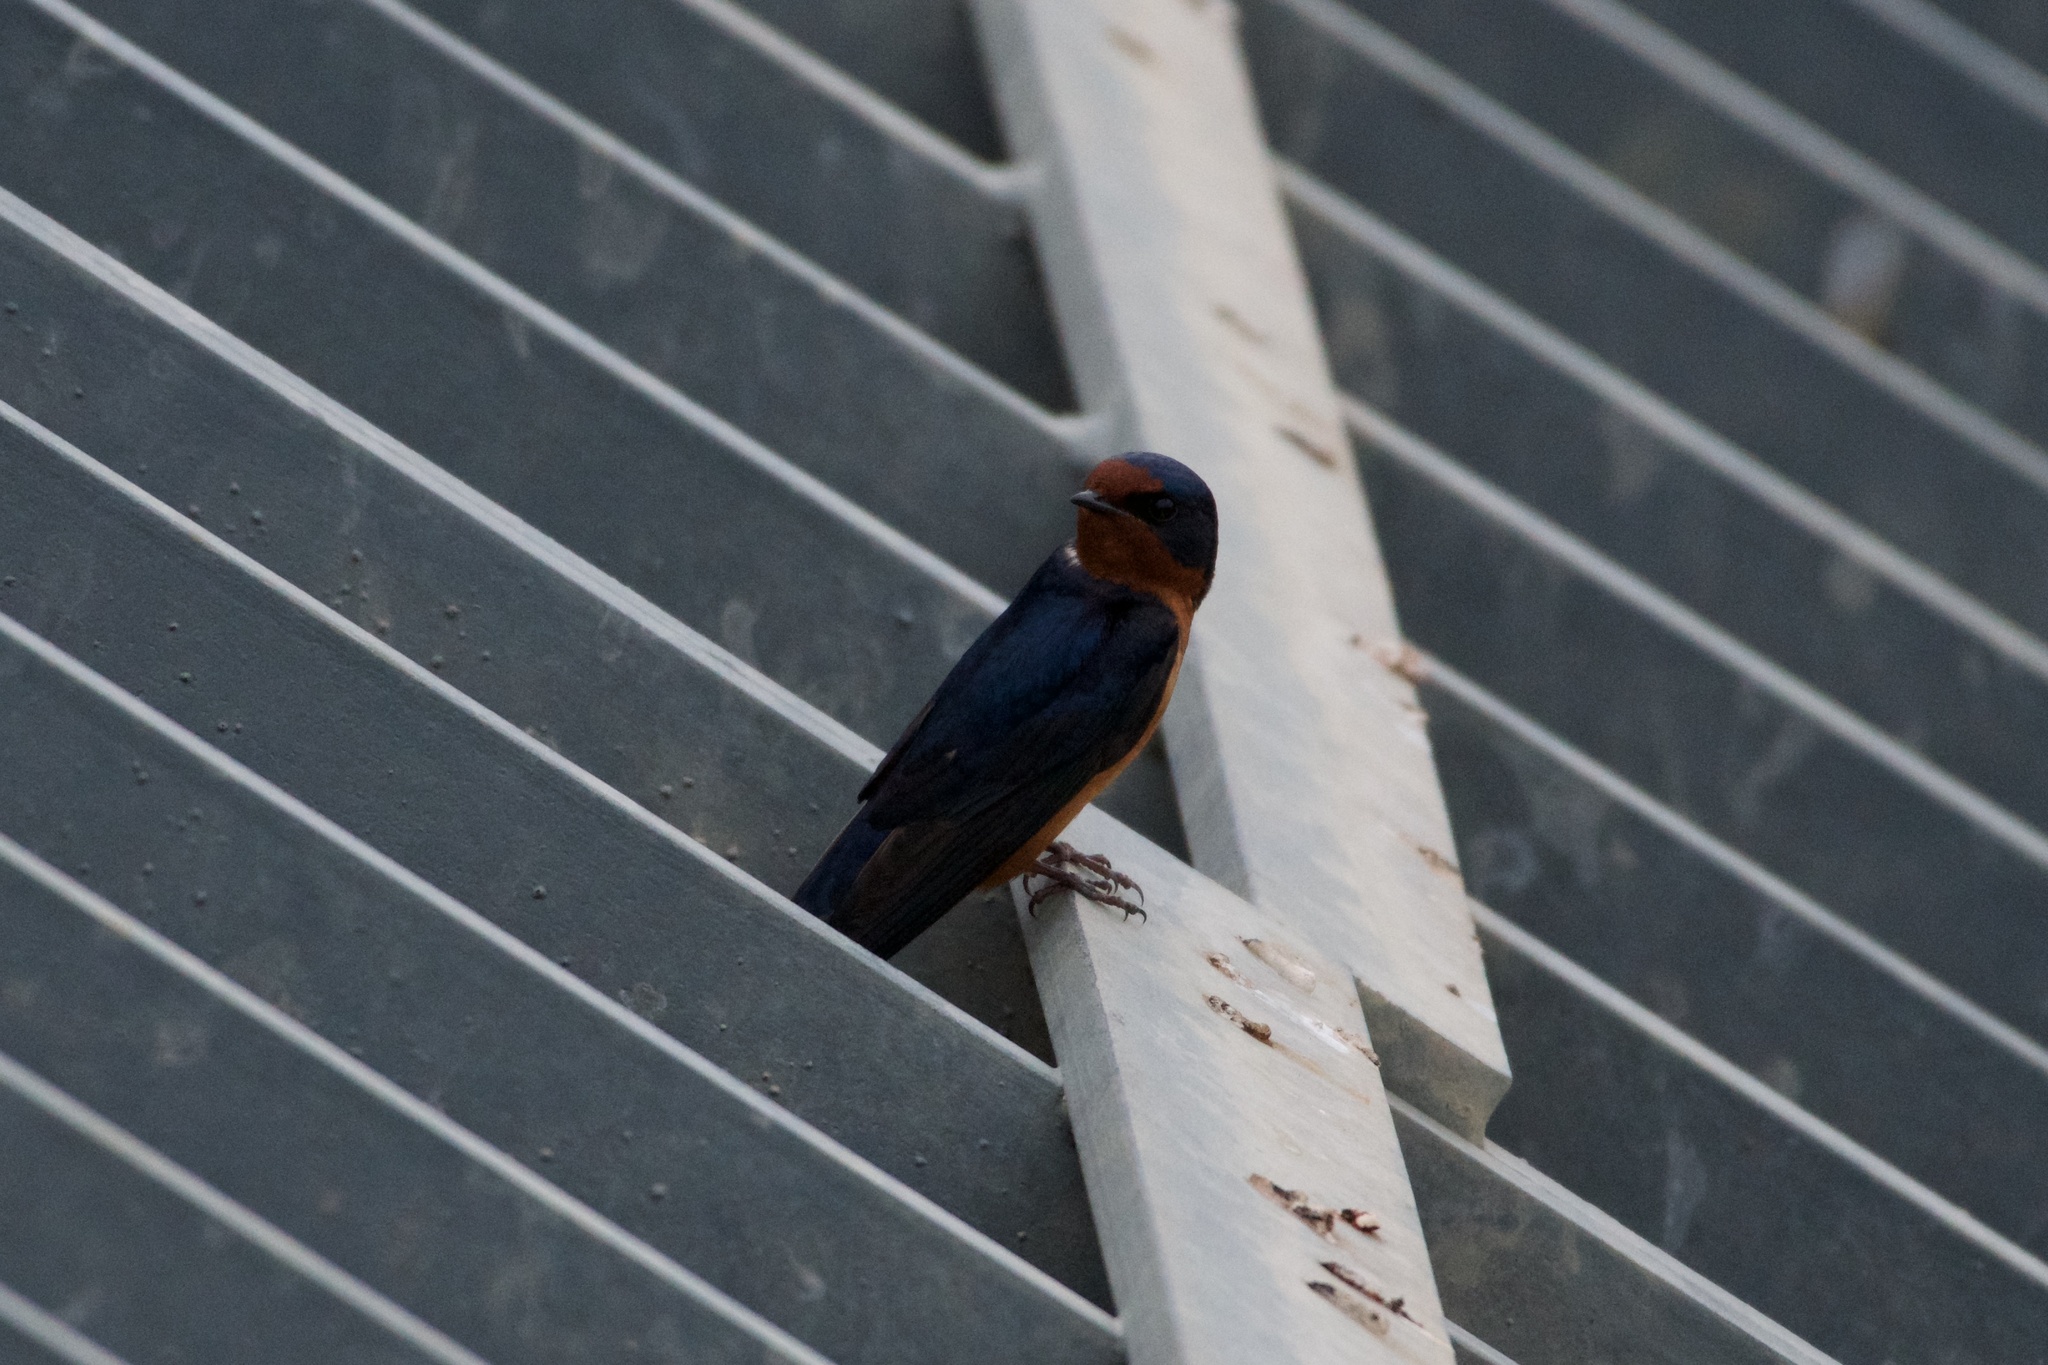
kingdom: Animalia
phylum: Chordata
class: Aves
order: Passeriformes
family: Hirundinidae
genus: Hirundo
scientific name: Hirundo rustica
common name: Barn swallow
